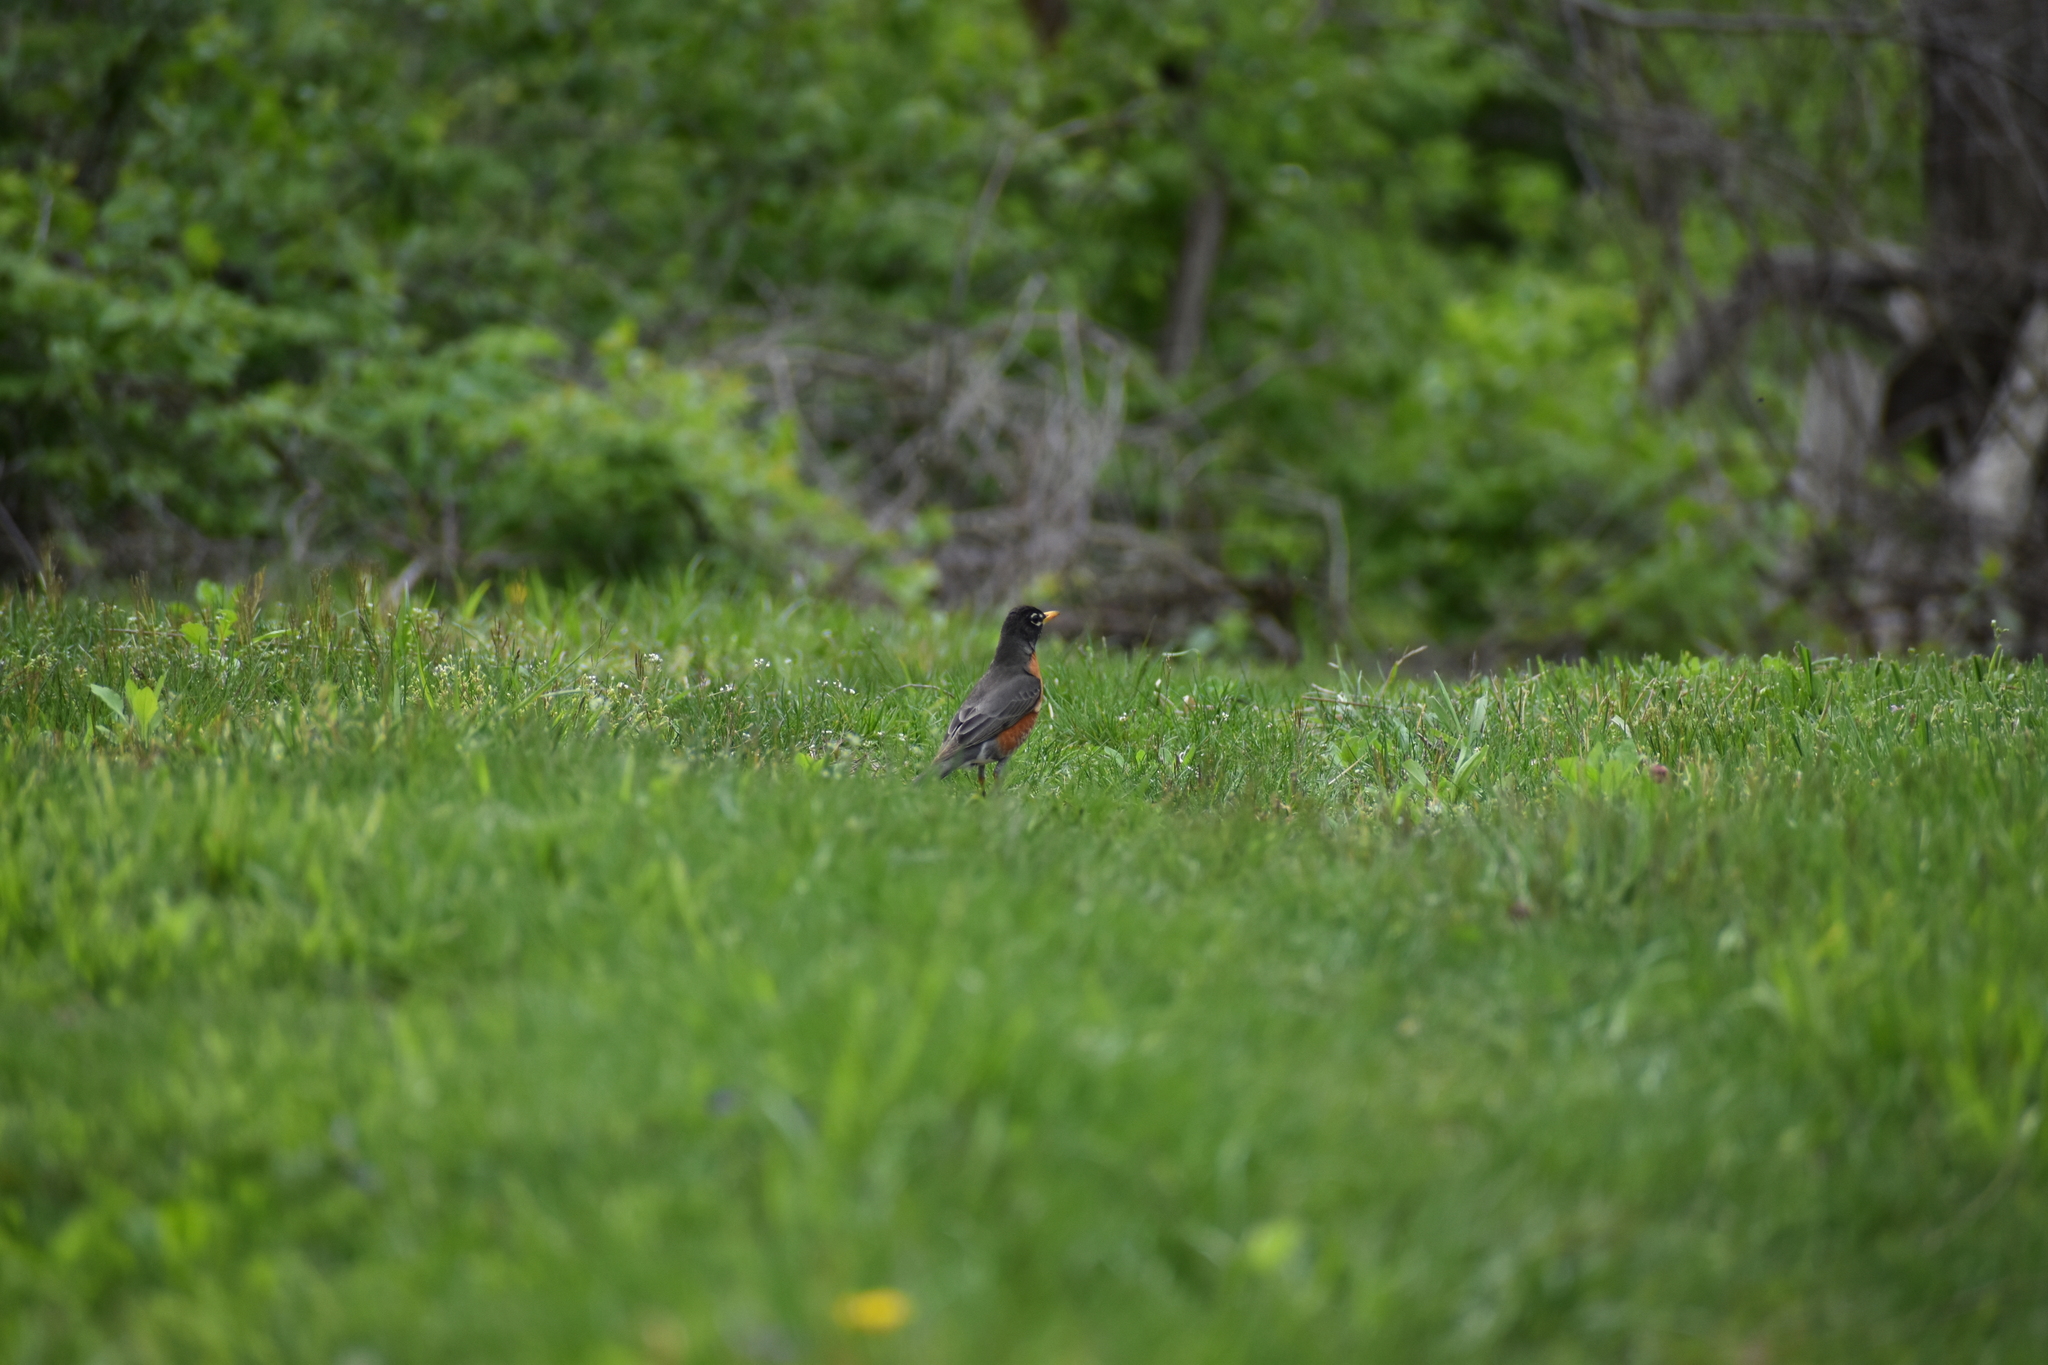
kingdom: Animalia
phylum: Chordata
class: Aves
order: Passeriformes
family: Turdidae
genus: Turdus
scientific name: Turdus migratorius
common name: American robin
